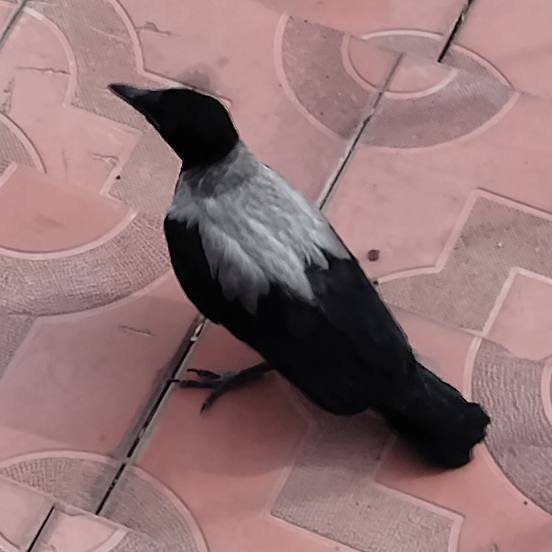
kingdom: Animalia
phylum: Chordata
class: Aves
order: Passeriformes
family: Corvidae
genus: Corvus
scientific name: Corvus cornix
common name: Hooded crow
